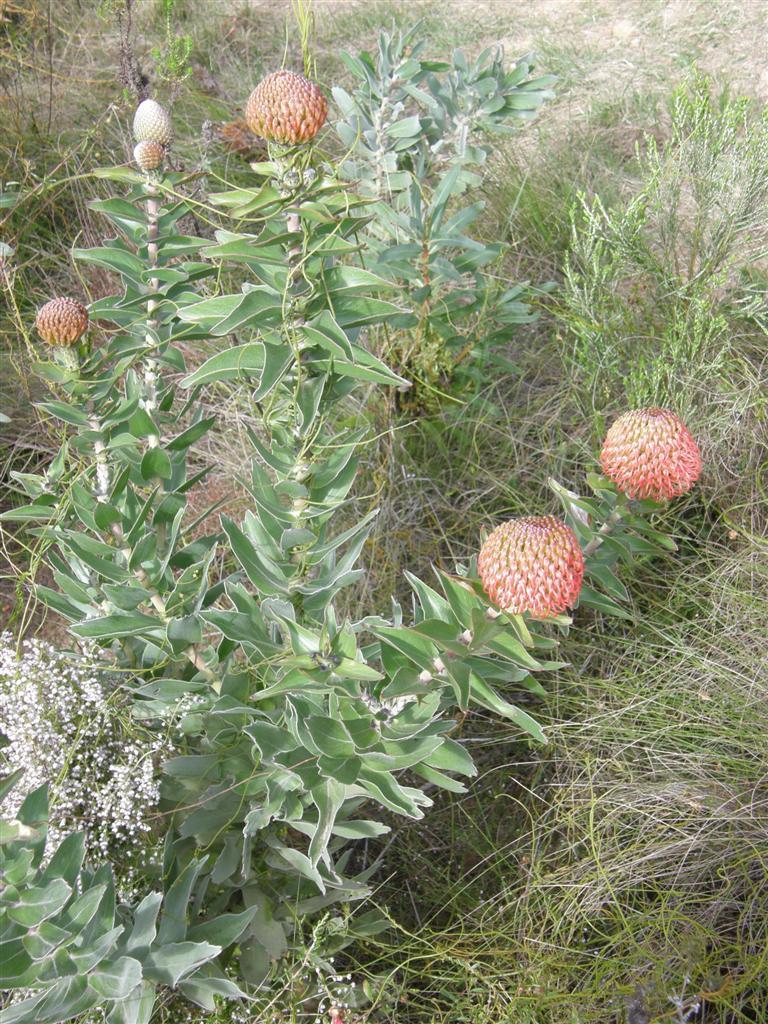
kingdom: Plantae
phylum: Tracheophyta
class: Magnoliopsida
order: Proteales
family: Proteaceae
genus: Leucospermum
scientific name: Leucospermum cordifolium
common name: Red pincushion-protea
